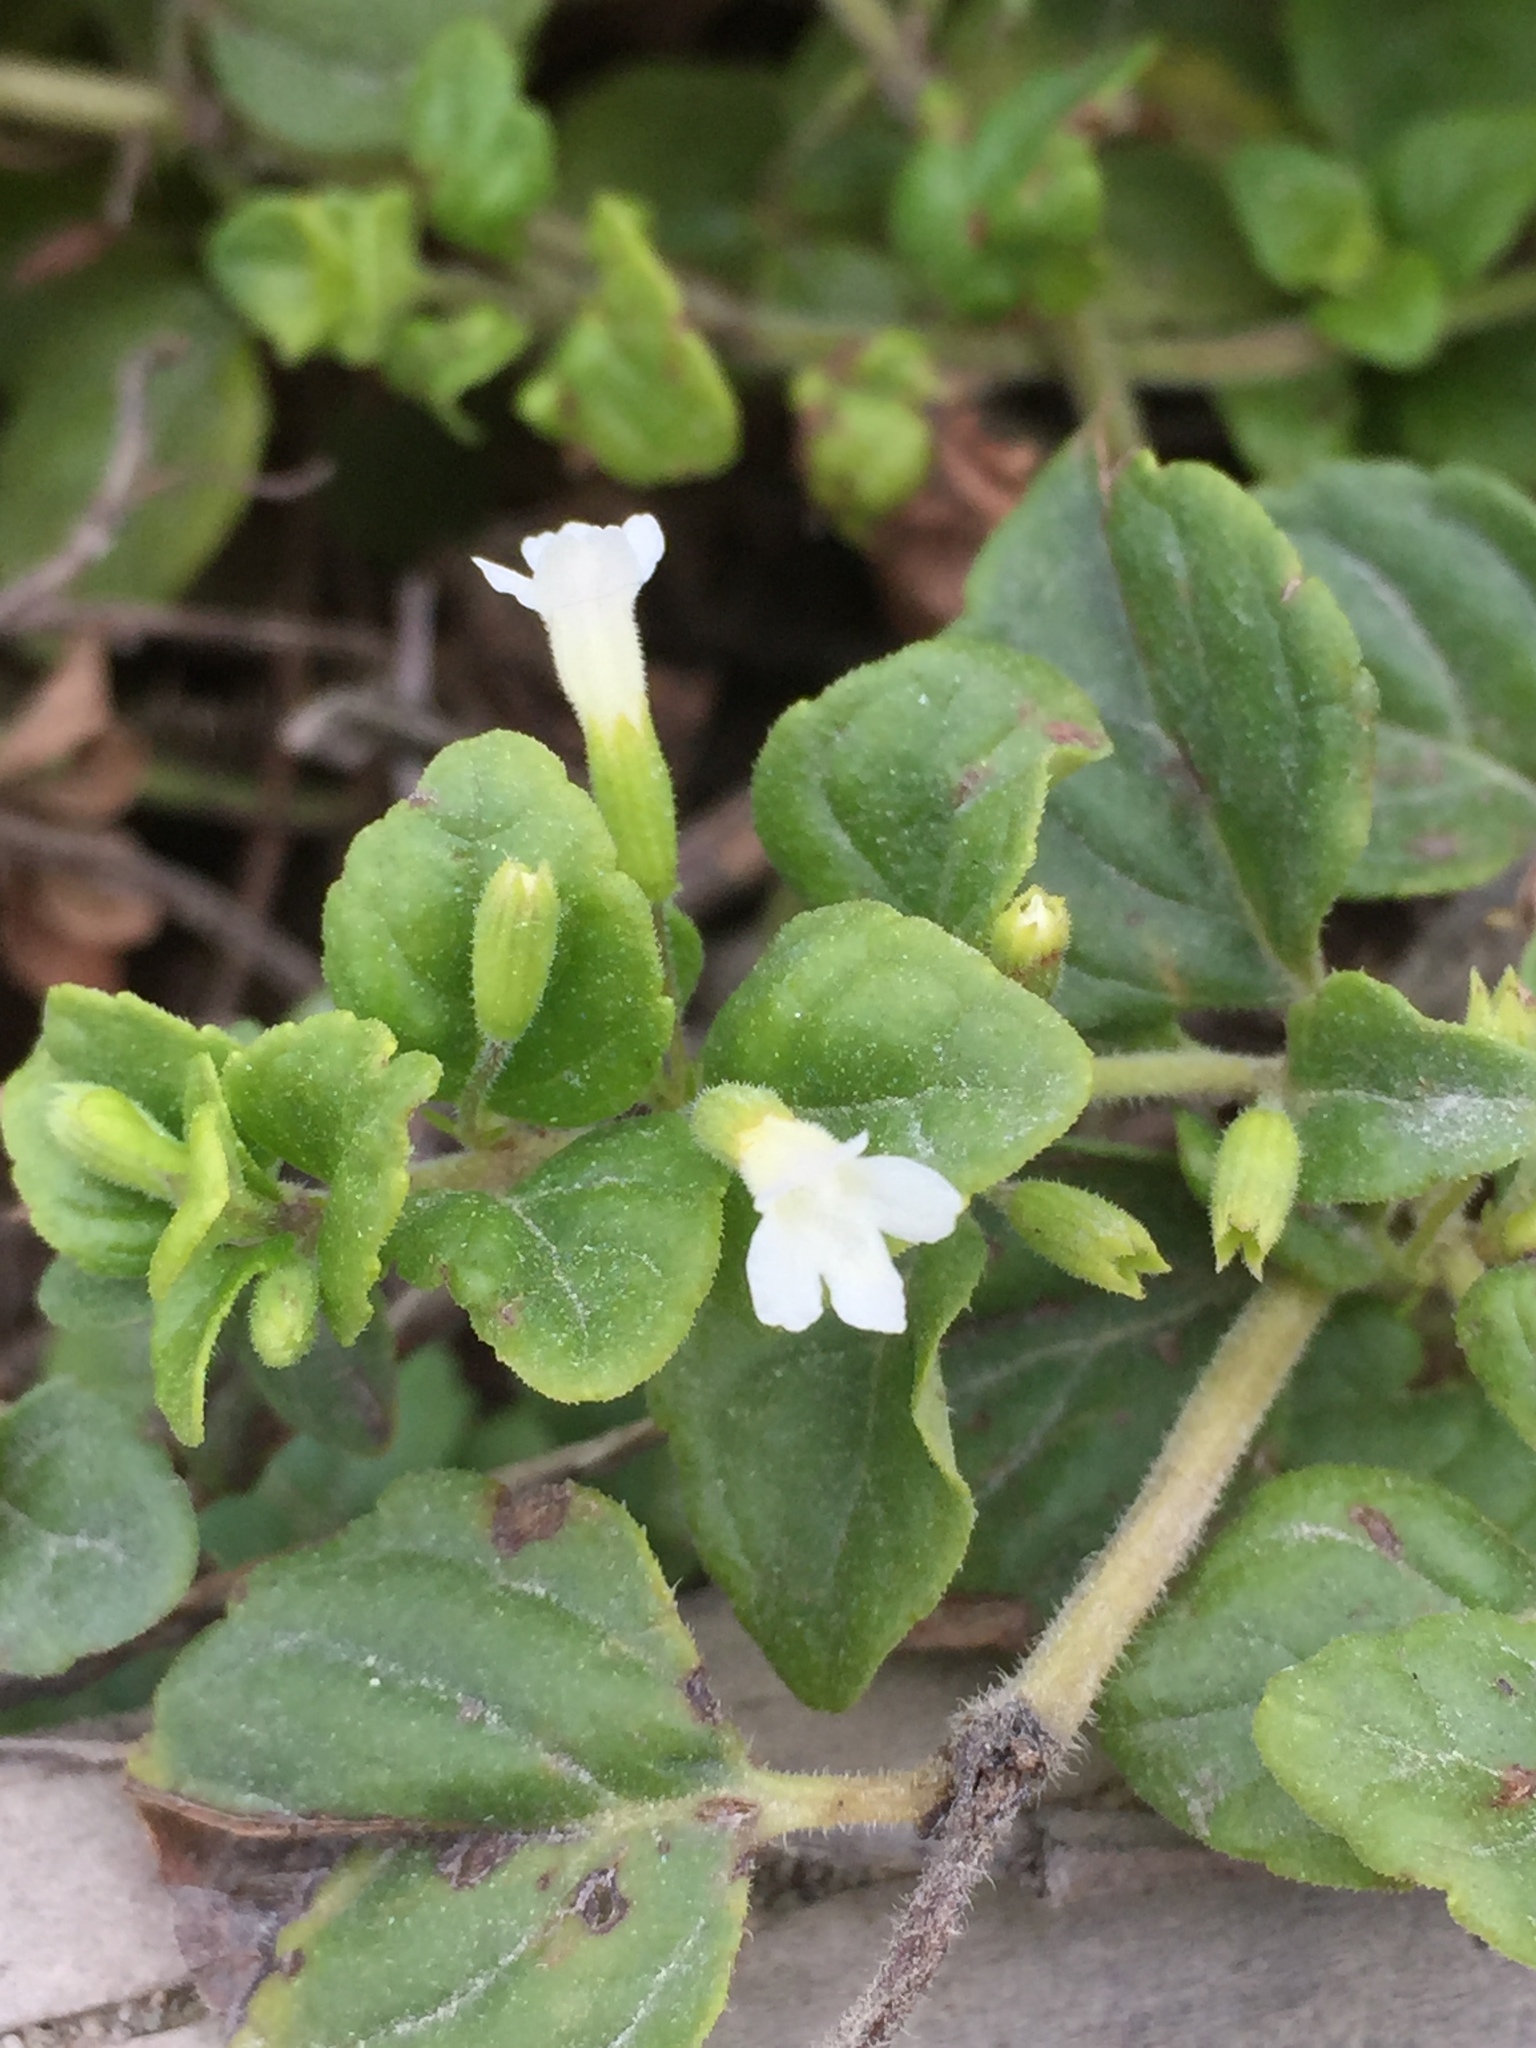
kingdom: Plantae
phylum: Tracheophyta
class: Magnoliopsida
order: Lamiales
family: Lamiaceae
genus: Micromeria
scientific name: Micromeria douglasii
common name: Yerba buena
